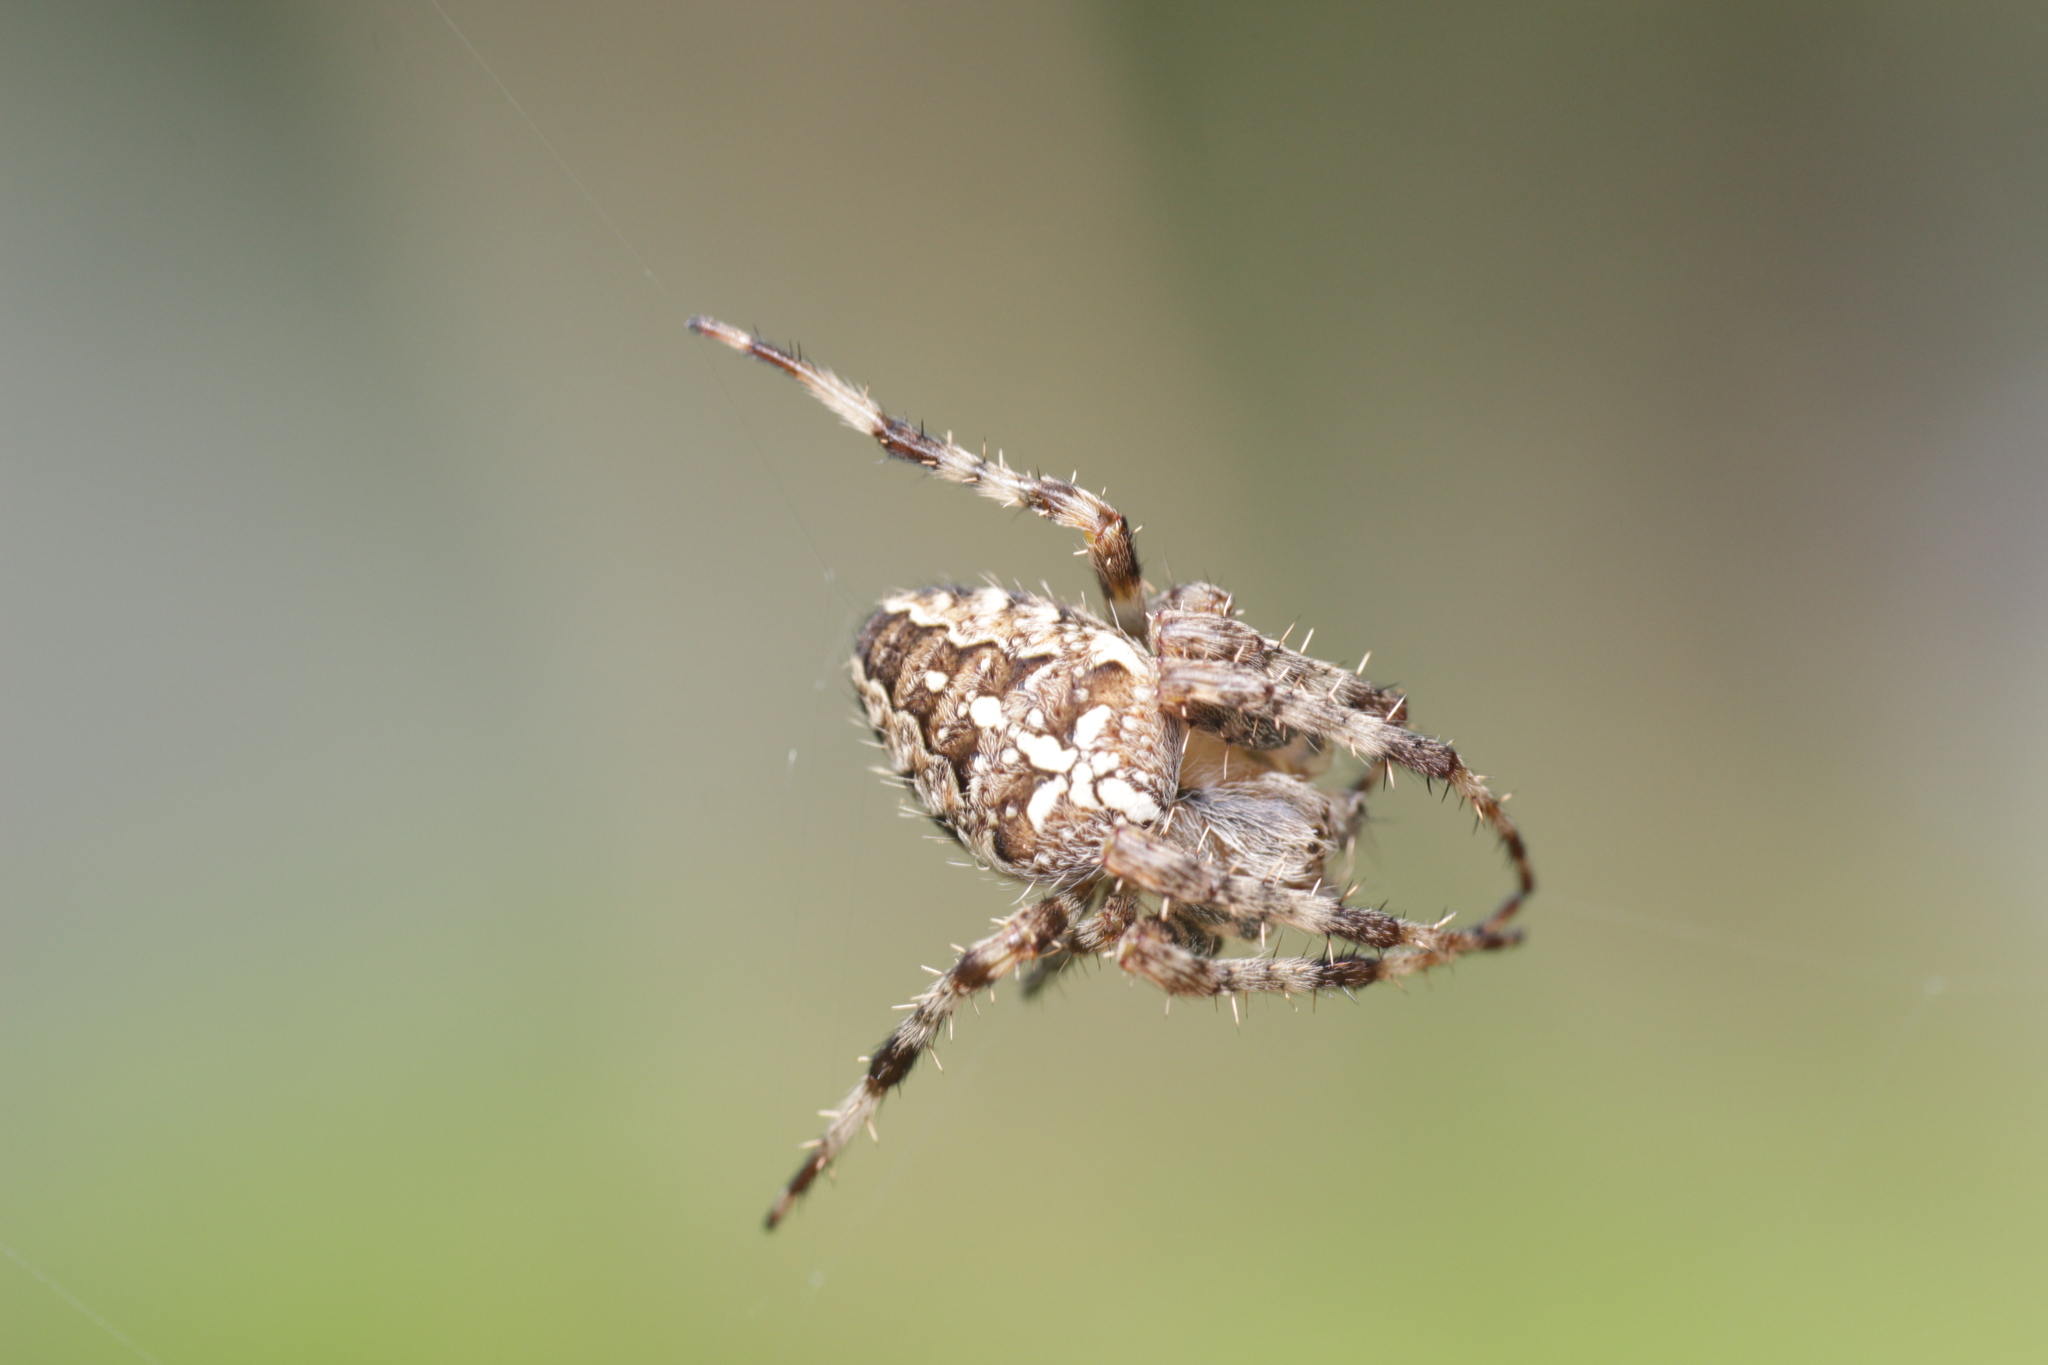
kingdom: Animalia
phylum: Arthropoda
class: Arachnida
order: Araneae
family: Araneidae
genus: Araneus
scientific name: Araneus diadematus
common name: Cross orbweaver
